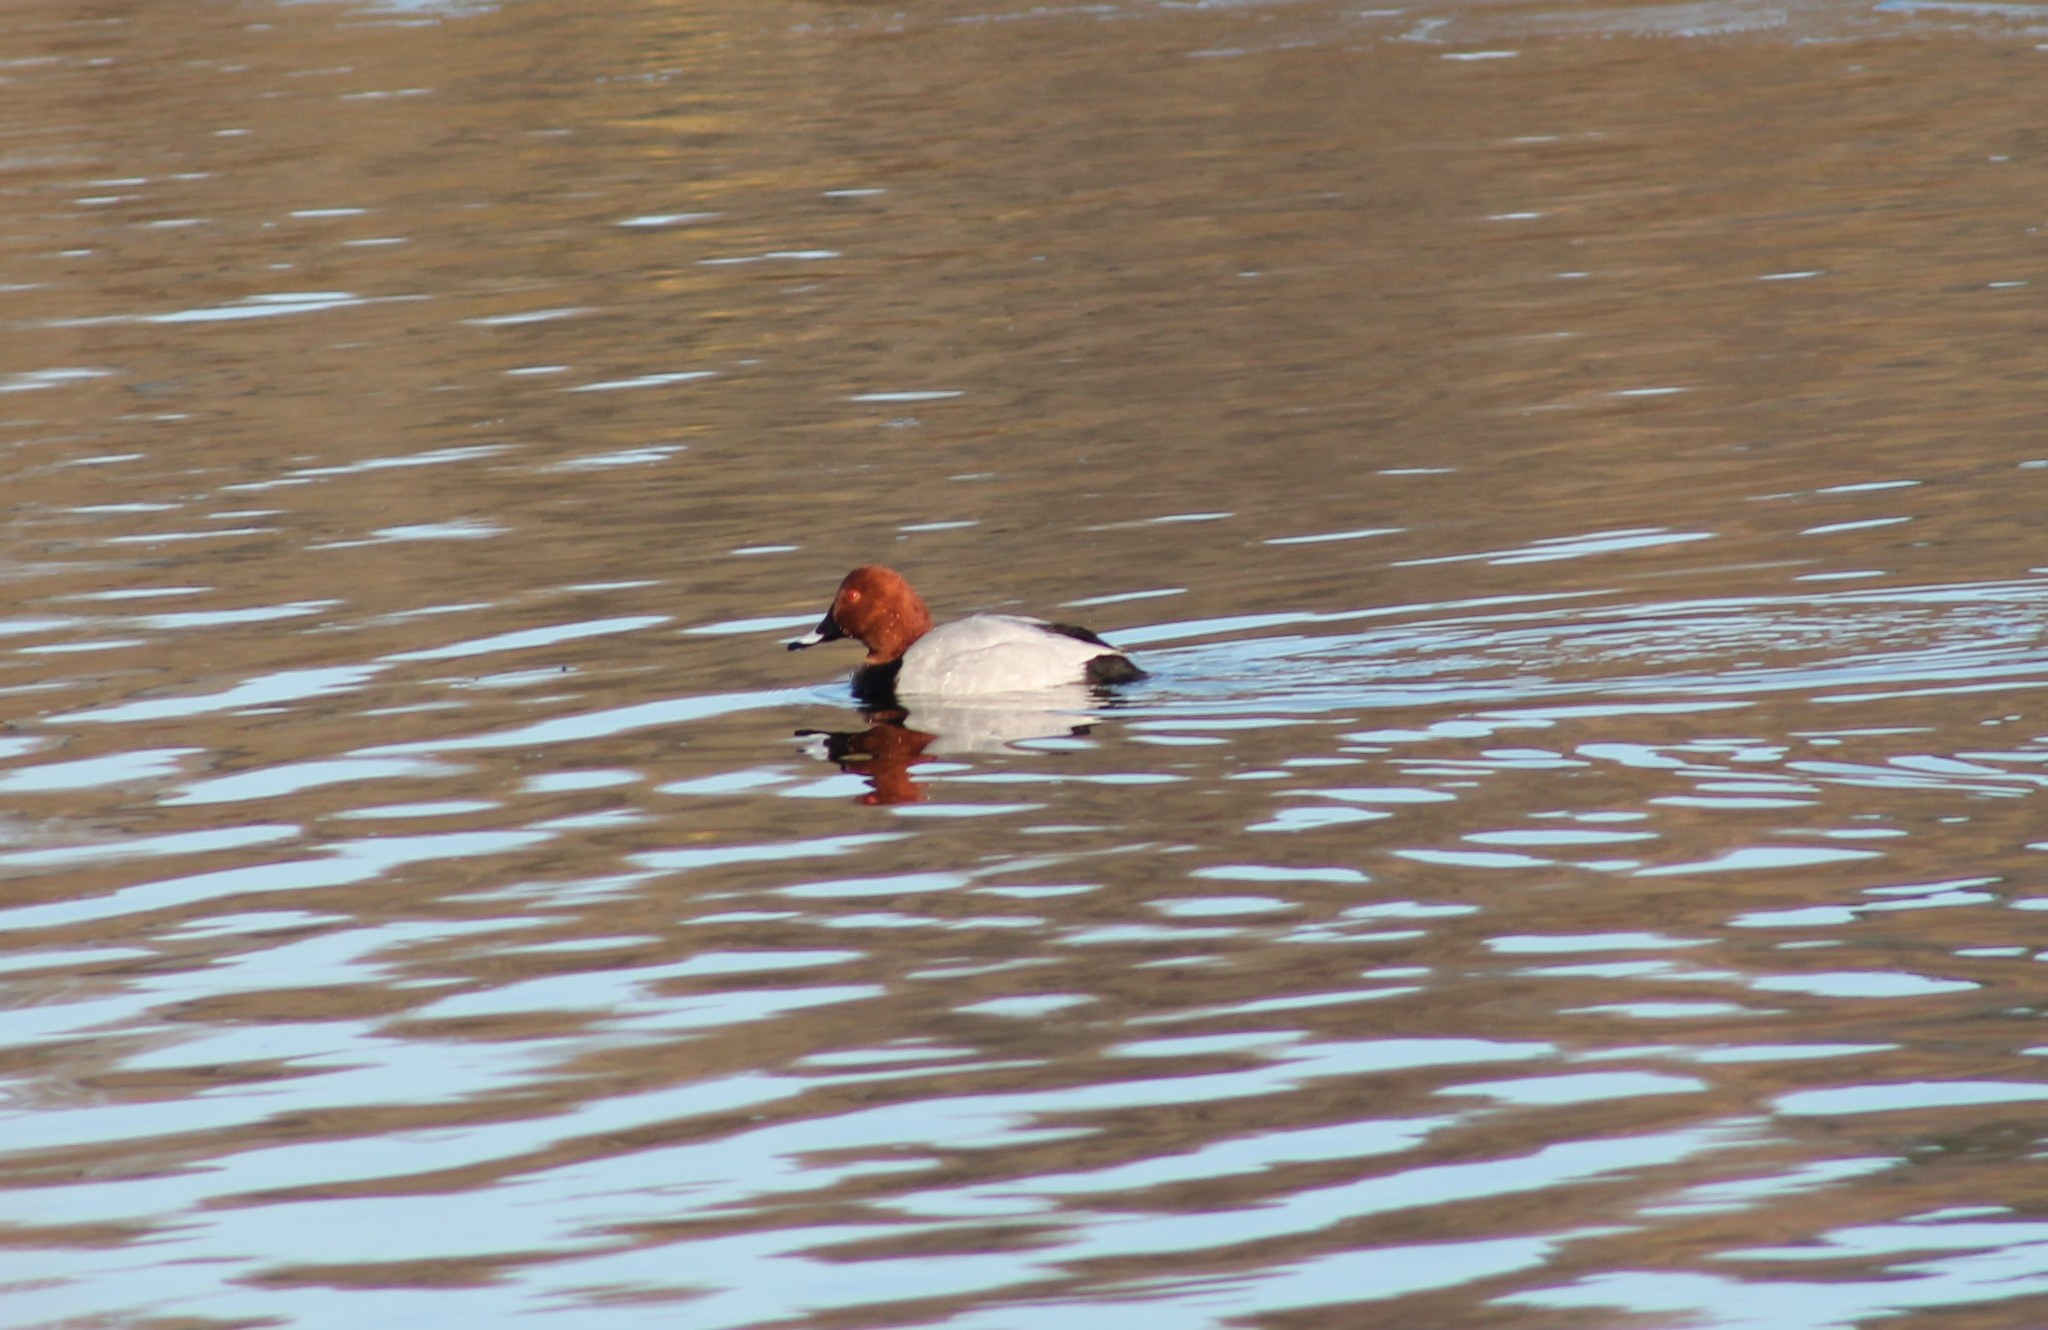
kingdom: Animalia
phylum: Chordata
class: Aves
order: Anseriformes
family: Anatidae
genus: Aythya
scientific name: Aythya ferina
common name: Common pochard
